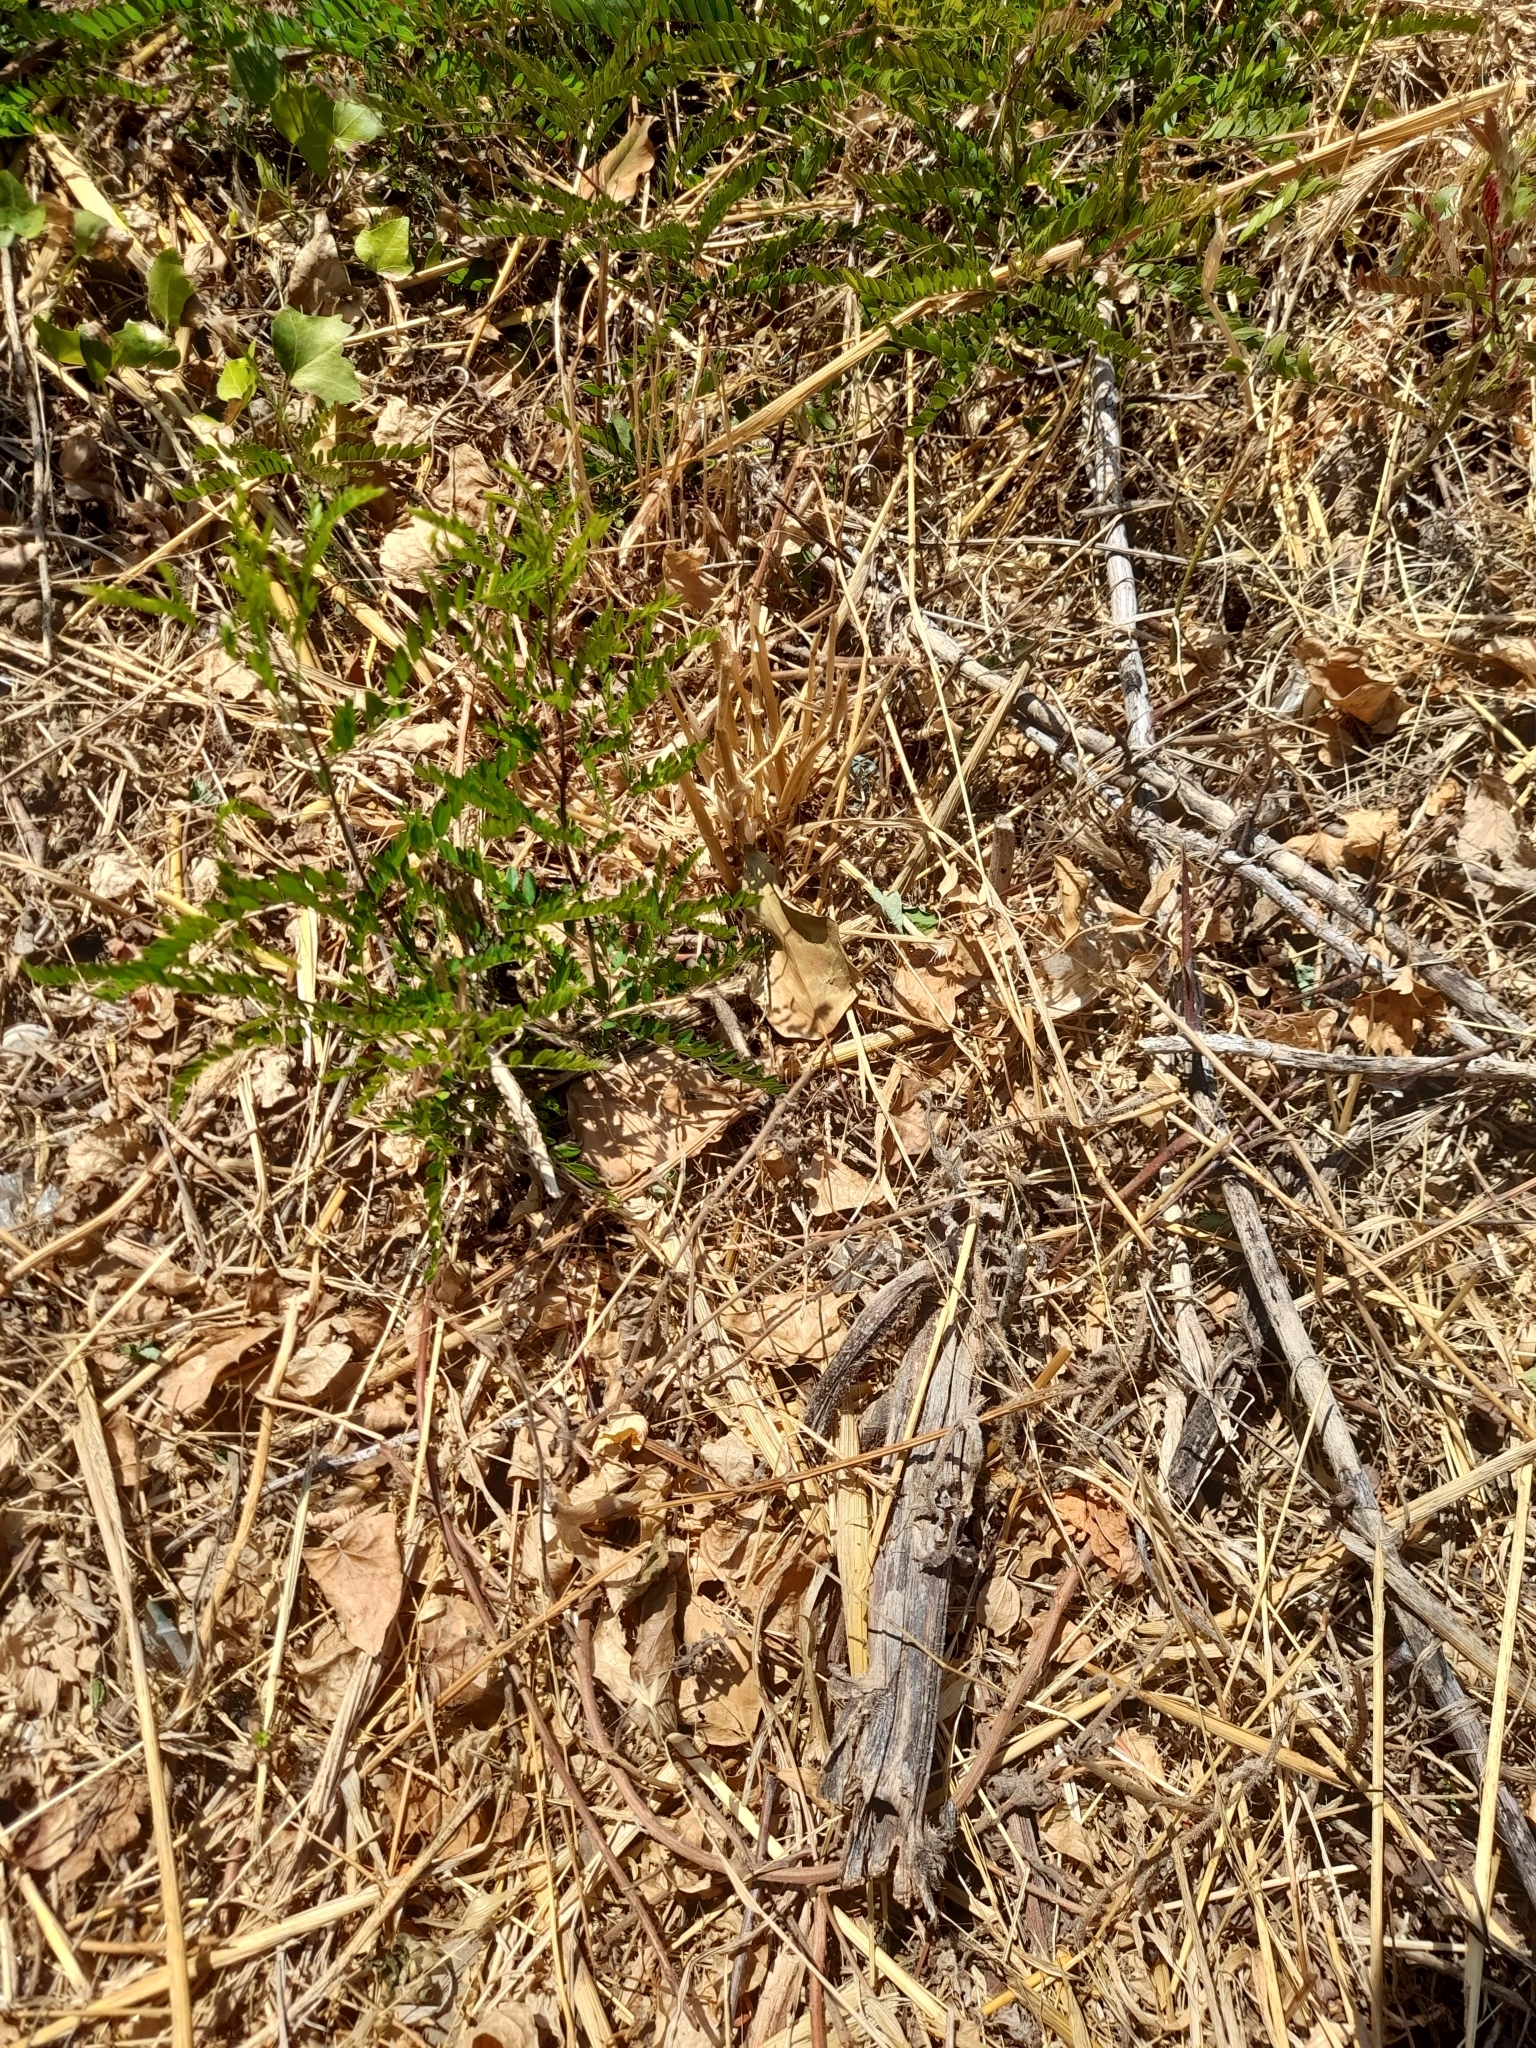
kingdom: Plantae
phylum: Tracheophyta
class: Magnoliopsida
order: Fabales
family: Fabaceae
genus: Gleditsia
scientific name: Gleditsia triacanthos
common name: Common honeylocust
